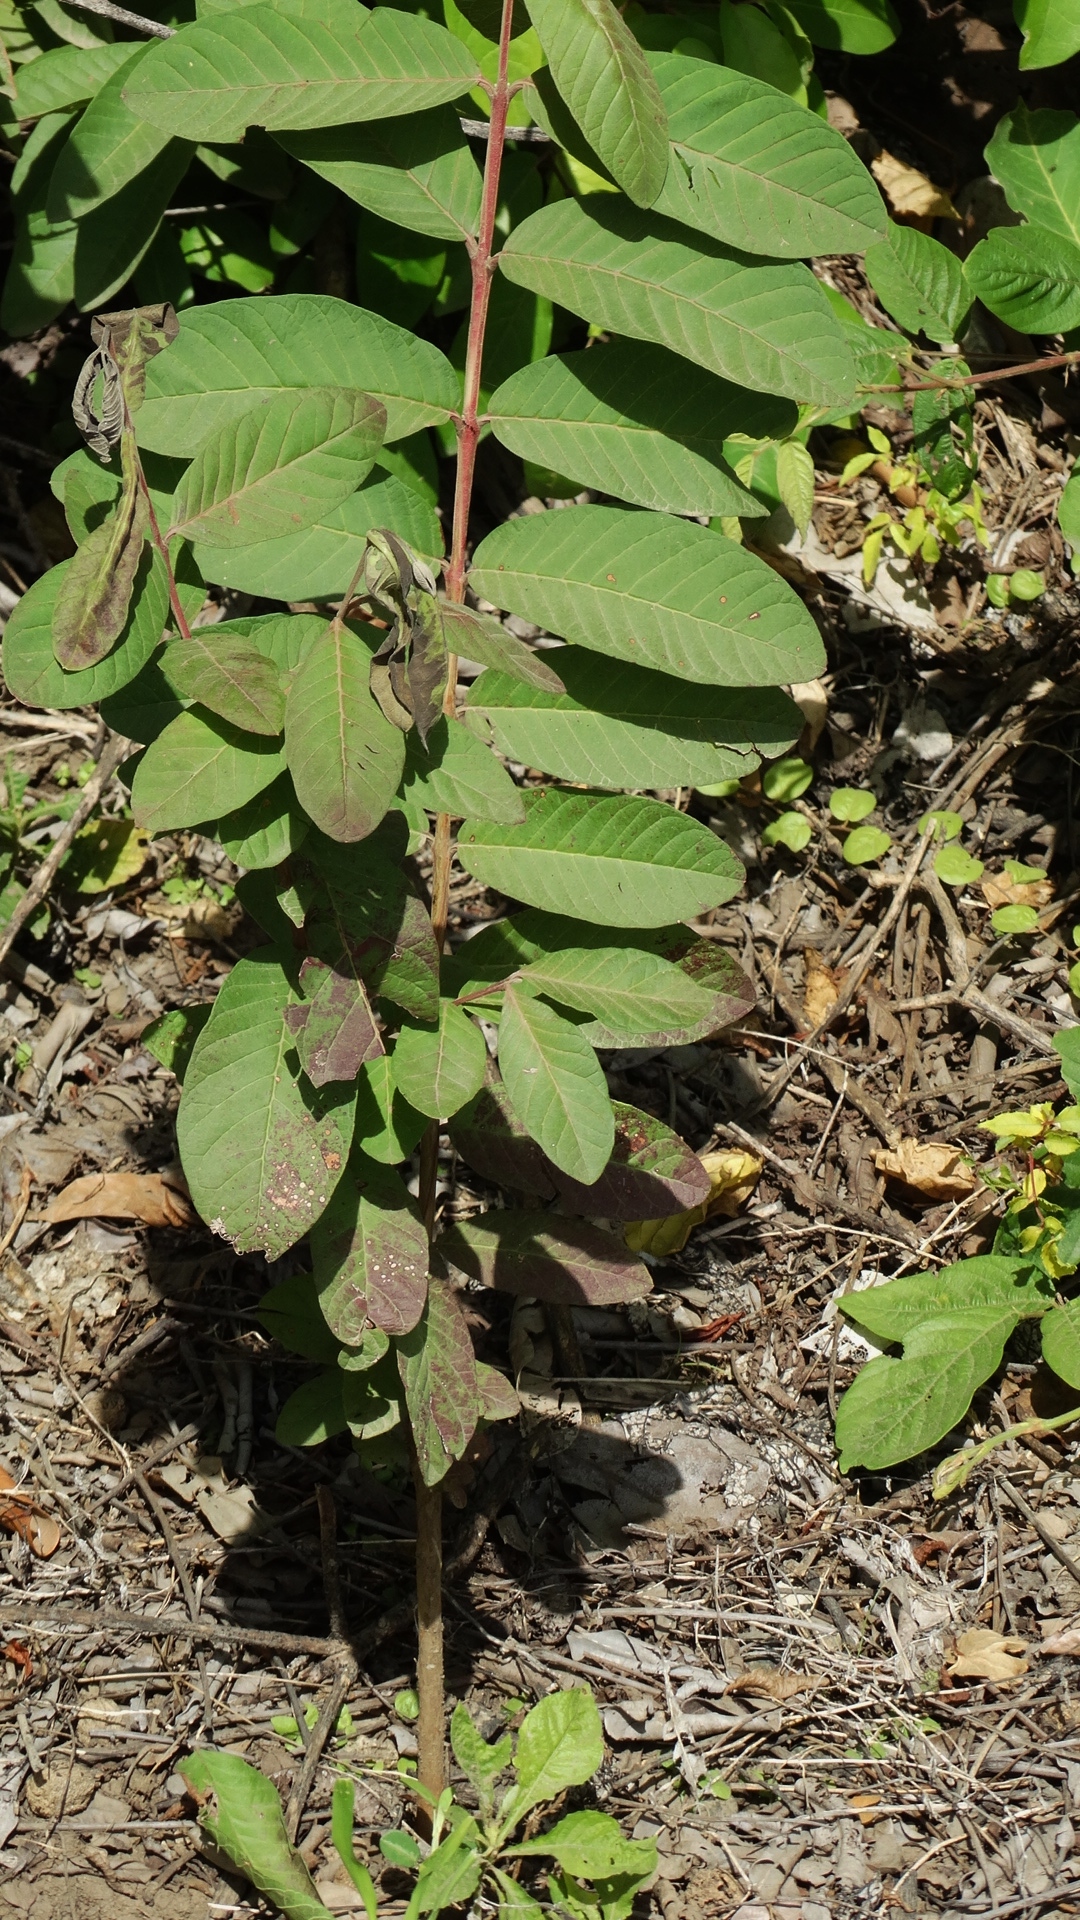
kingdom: Plantae
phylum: Tracheophyta
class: Magnoliopsida
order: Myrtales
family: Myrtaceae
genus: Psidium
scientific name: Psidium guajava
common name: Guava
